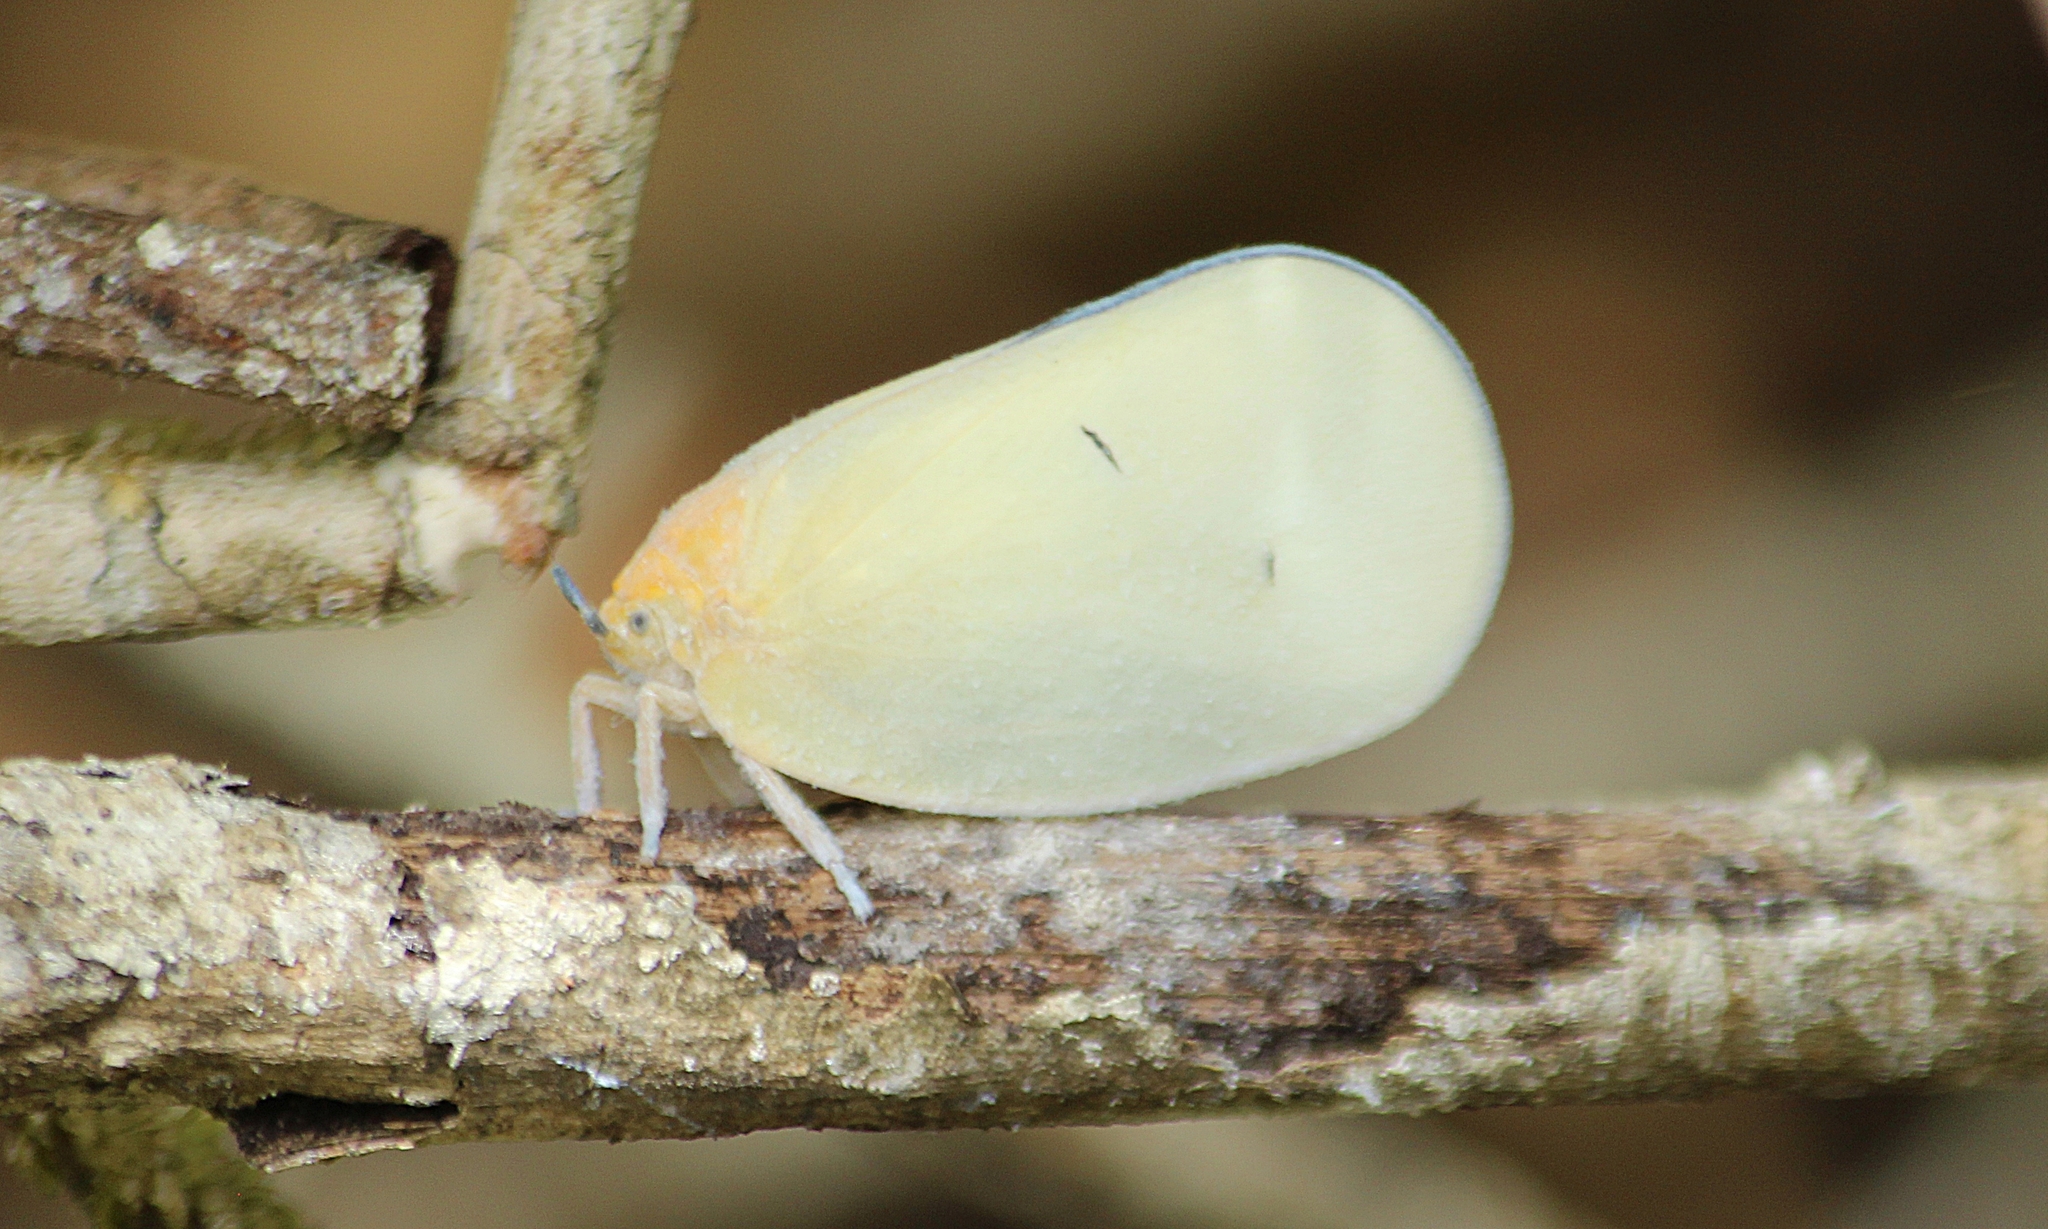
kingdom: Animalia
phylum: Arthropoda
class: Insecta
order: Hemiptera
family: Flatidae
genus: Flatida
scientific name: Flatida viridula
